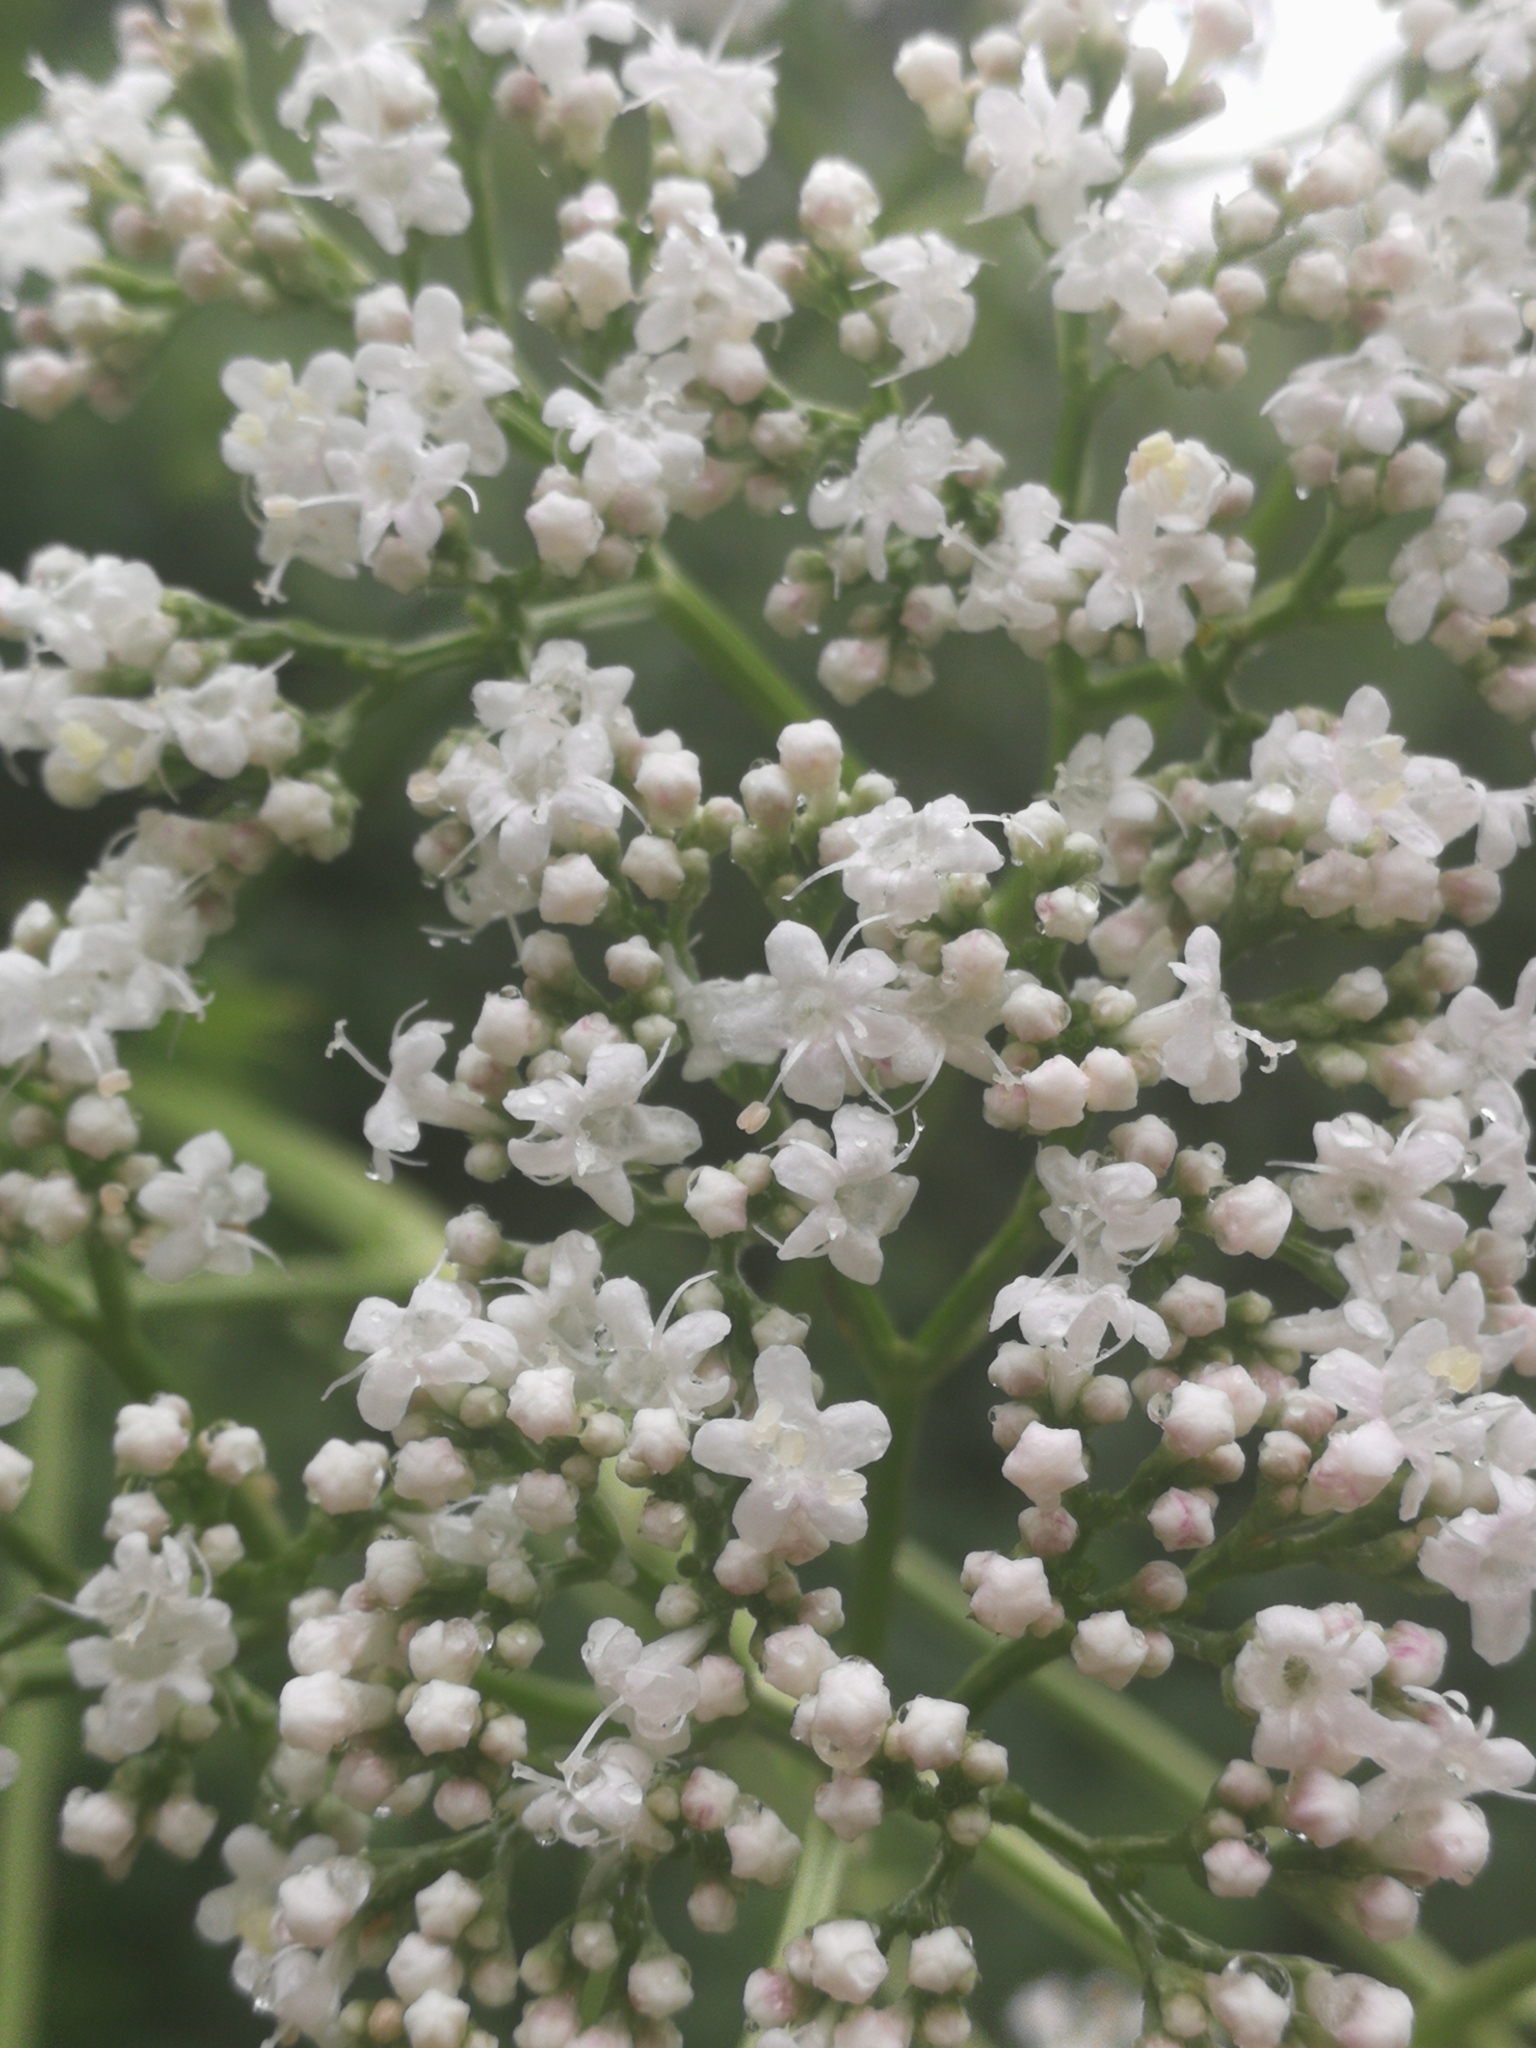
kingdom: Plantae
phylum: Tracheophyta
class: Magnoliopsida
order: Dipsacales
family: Caprifoliaceae
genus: Valeriana
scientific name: Valeriana officinalis
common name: Common valerian
